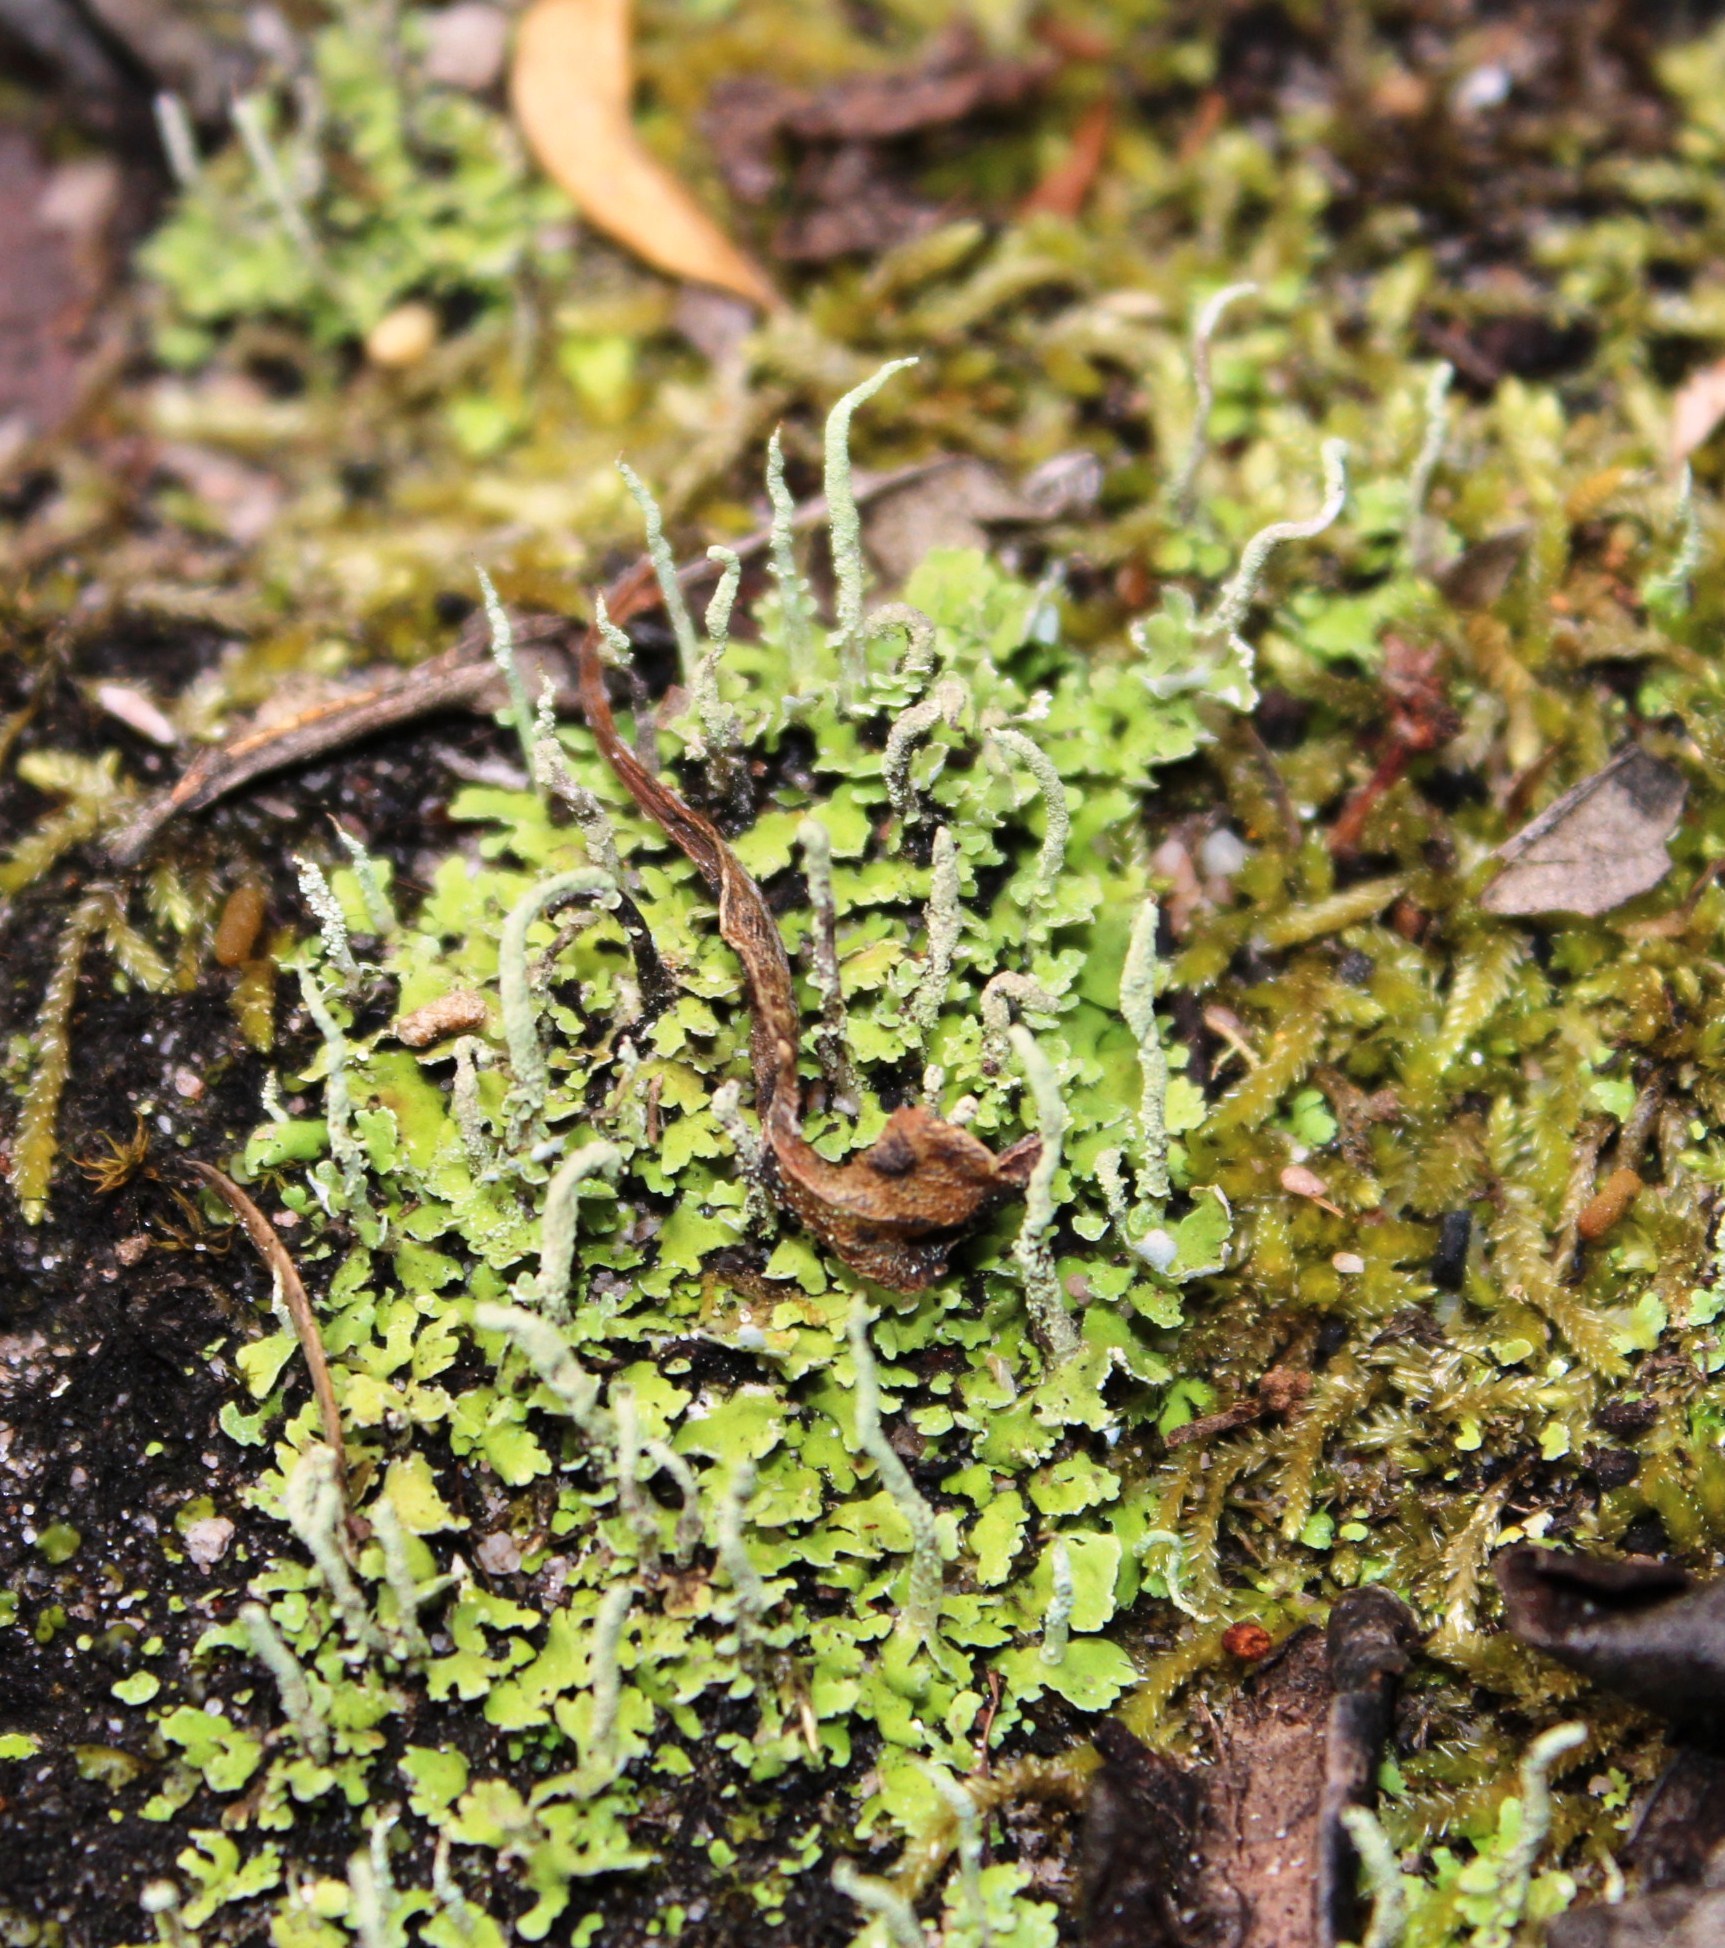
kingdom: Fungi
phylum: Ascomycota
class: Lecanoromycetes
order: Lecanorales
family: Cladoniaceae
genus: Cladonia
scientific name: Cladonia ochrochlora
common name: Smooth-footed powderhorn
